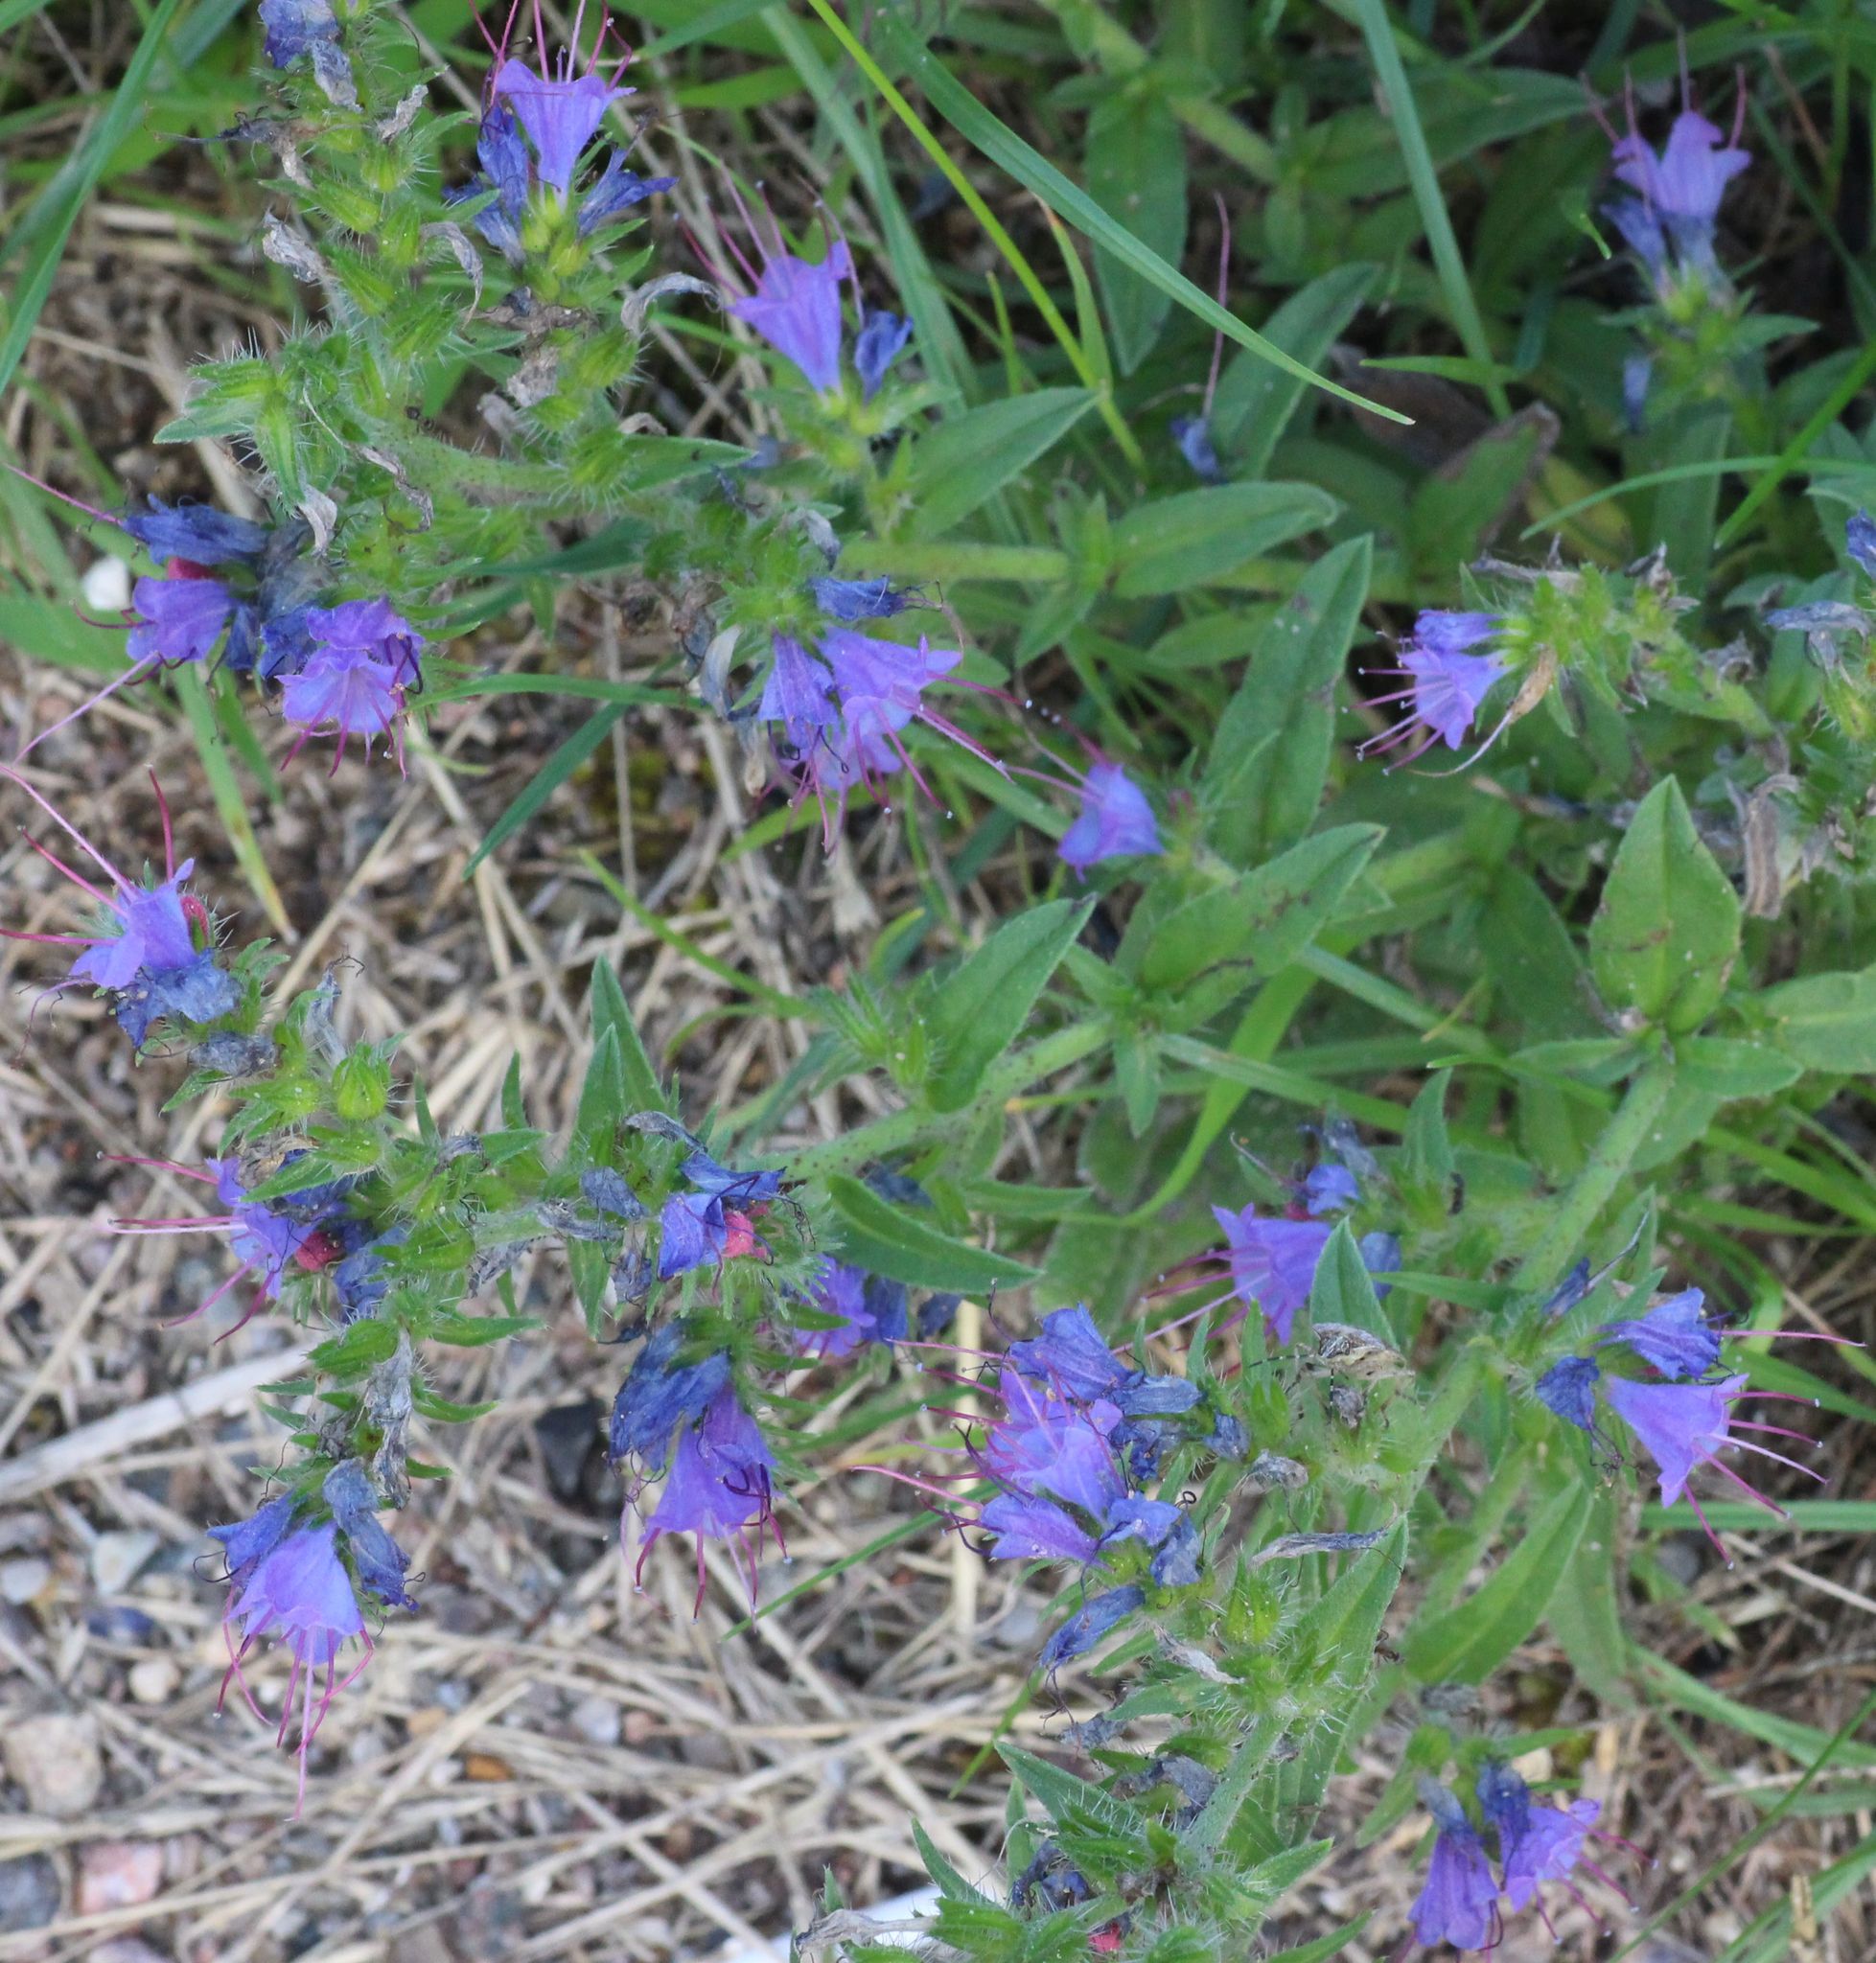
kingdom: Plantae
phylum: Tracheophyta
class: Magnoliopsida
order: Boraginales
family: Boraginaceae
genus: Echium
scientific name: Echium vulgare
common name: Common viper's bugloss
